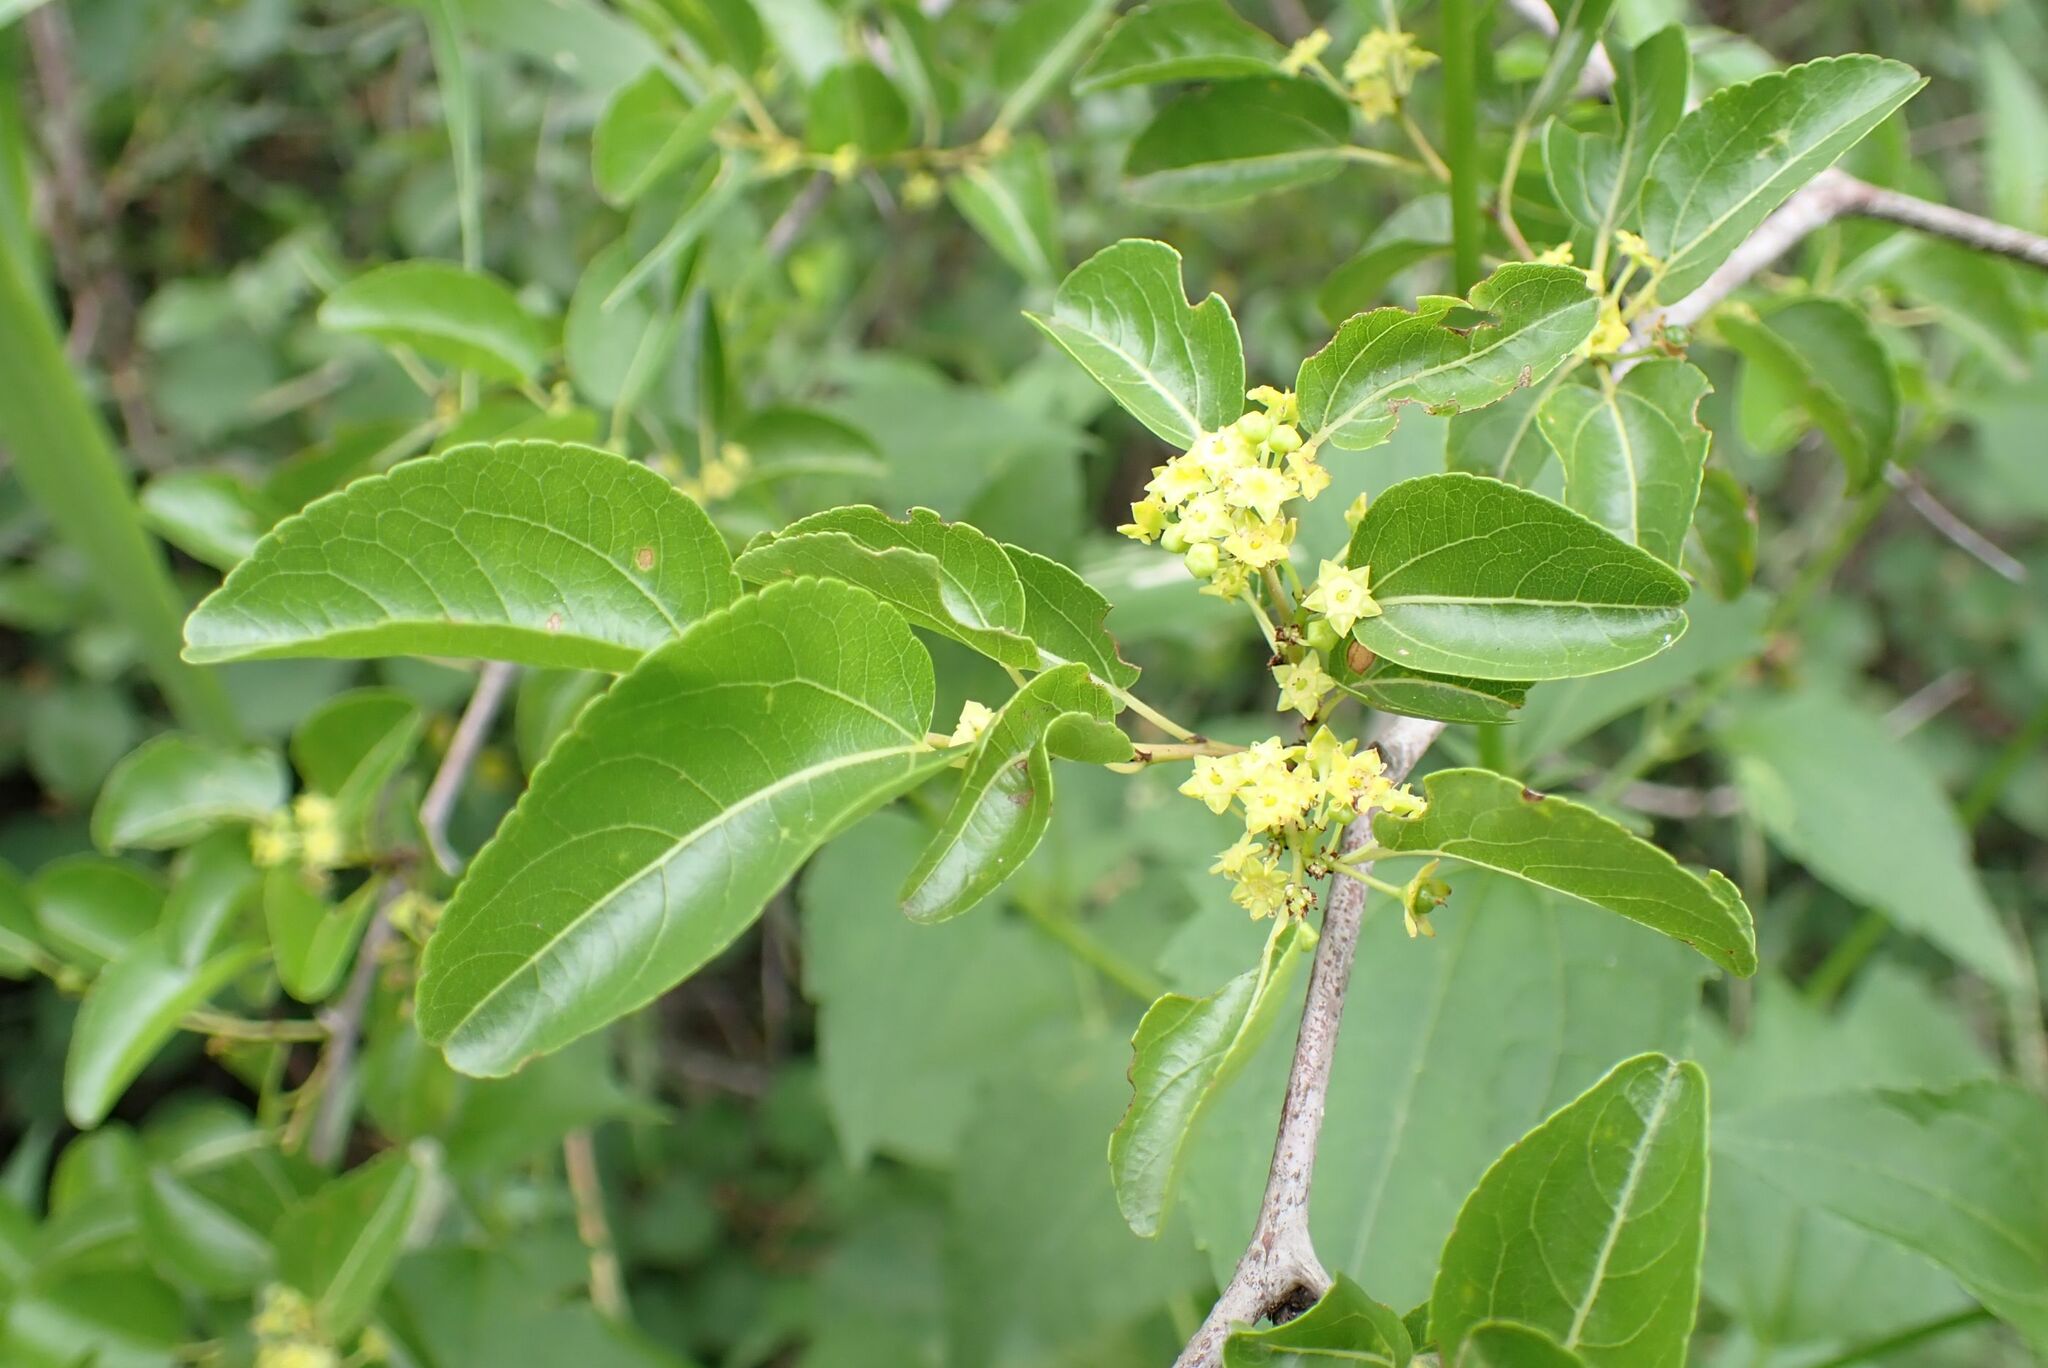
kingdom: Plantae
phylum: Tracheophyta
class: Magnoliopsida
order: Rosales
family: Rhamnaceae
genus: Ziziphus
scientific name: Ziziphus mucronata
